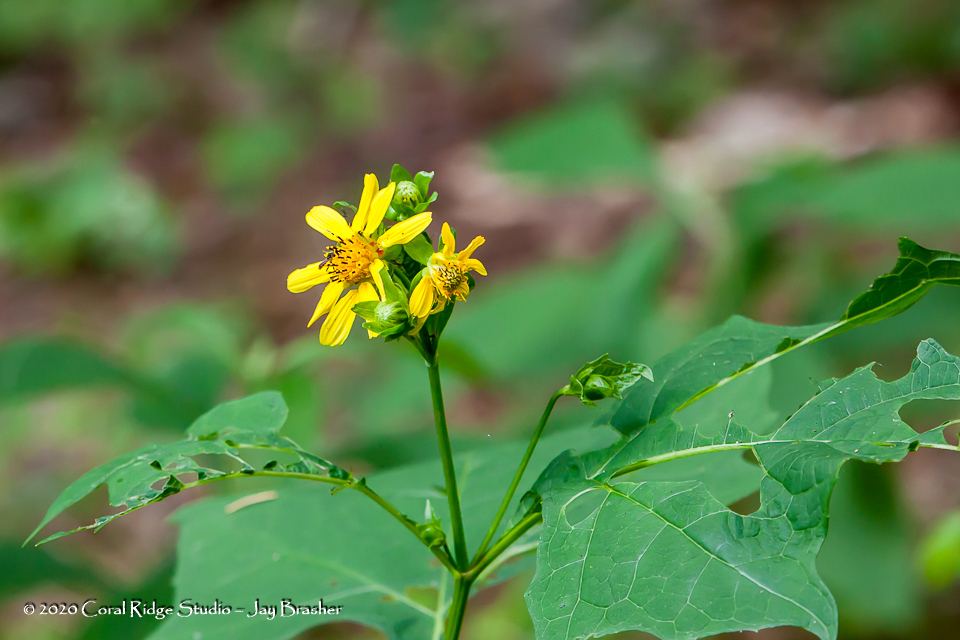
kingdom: Plantae
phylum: Tracheophyta
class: Magnoliopsida
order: Asterales
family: Asteraceae
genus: Smallanthus
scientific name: Smallanthus uvedalia
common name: Bear's-foot
